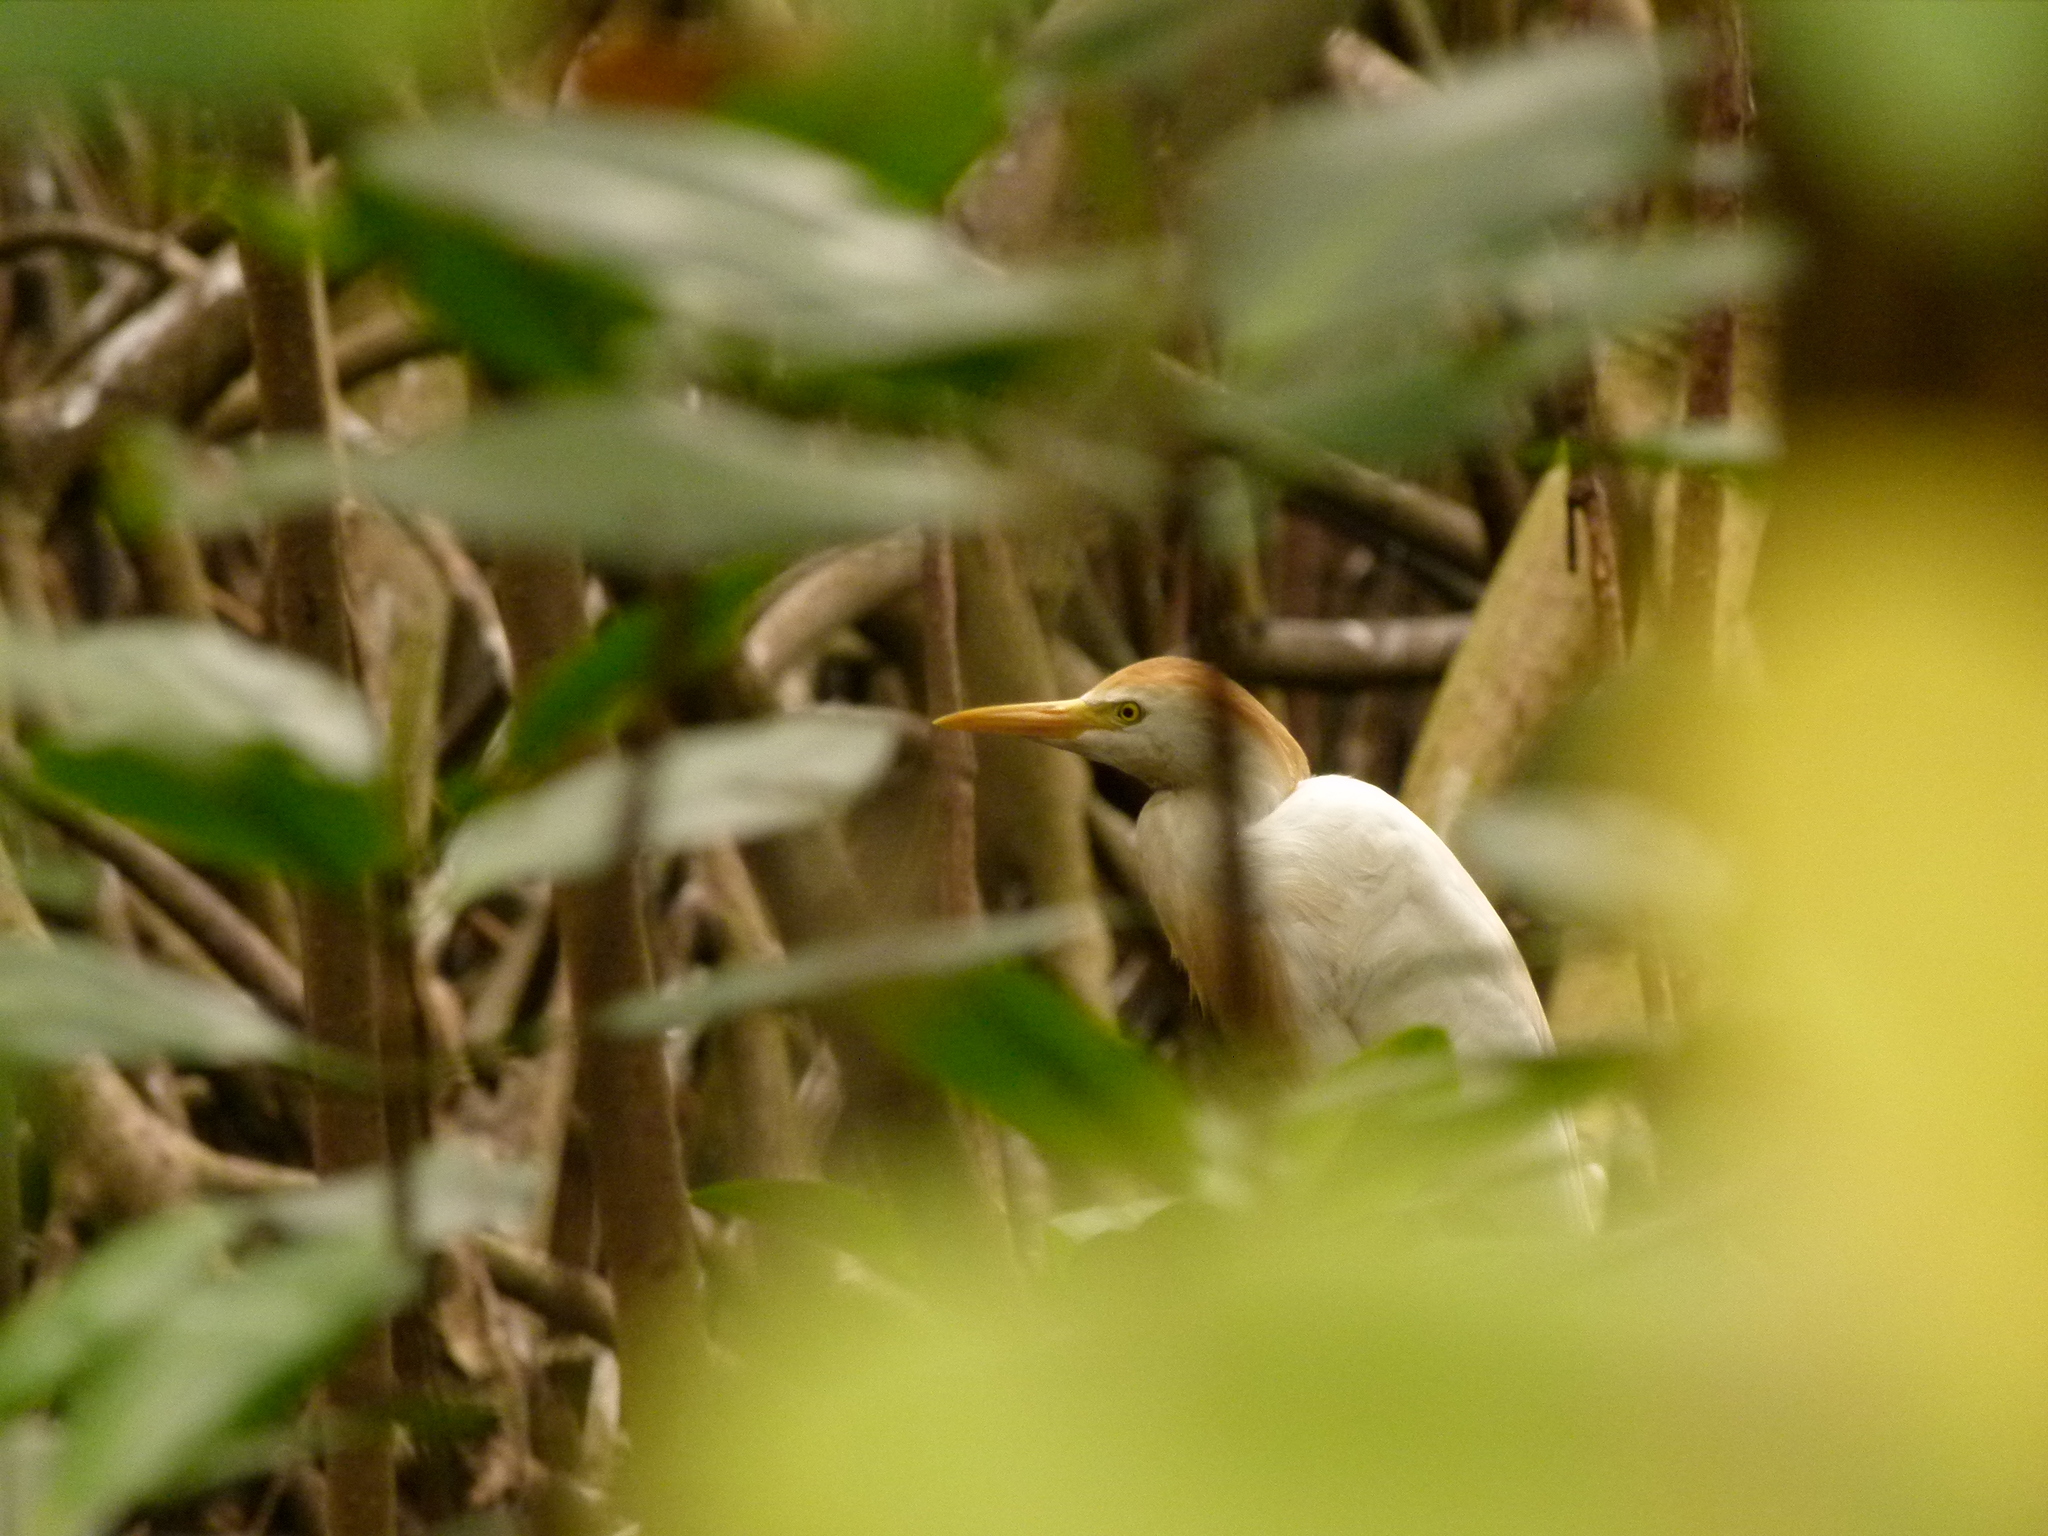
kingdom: Animalia
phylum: Chordata
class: Aves
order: Pelecaniformes
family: Ardeidae
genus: Bubulcus
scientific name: Bubulcus ibis
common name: Cattle egret
